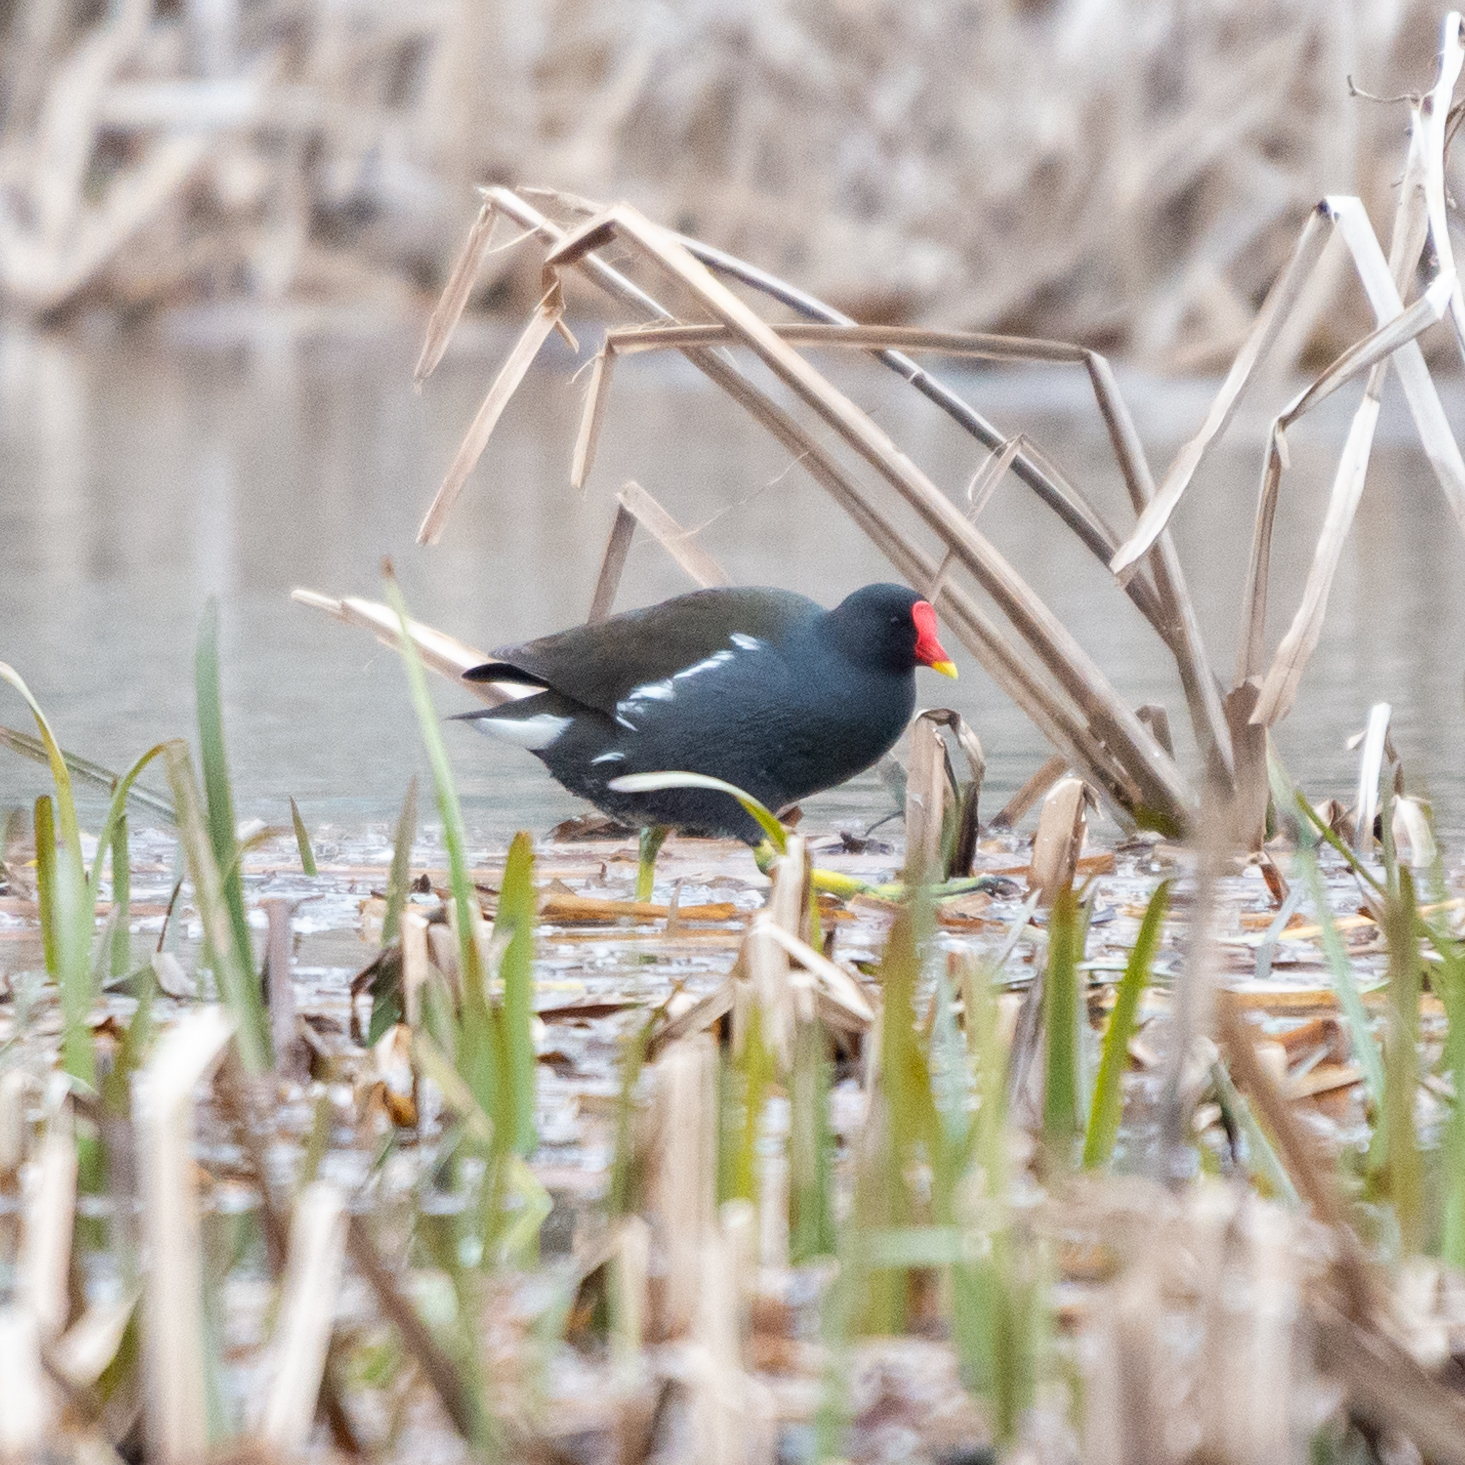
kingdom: Animalia
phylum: Chordata
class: Aves
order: Gruiformes
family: Rallidae
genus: Gallinula
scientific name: Gallinula chloropus
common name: Common moorhen
